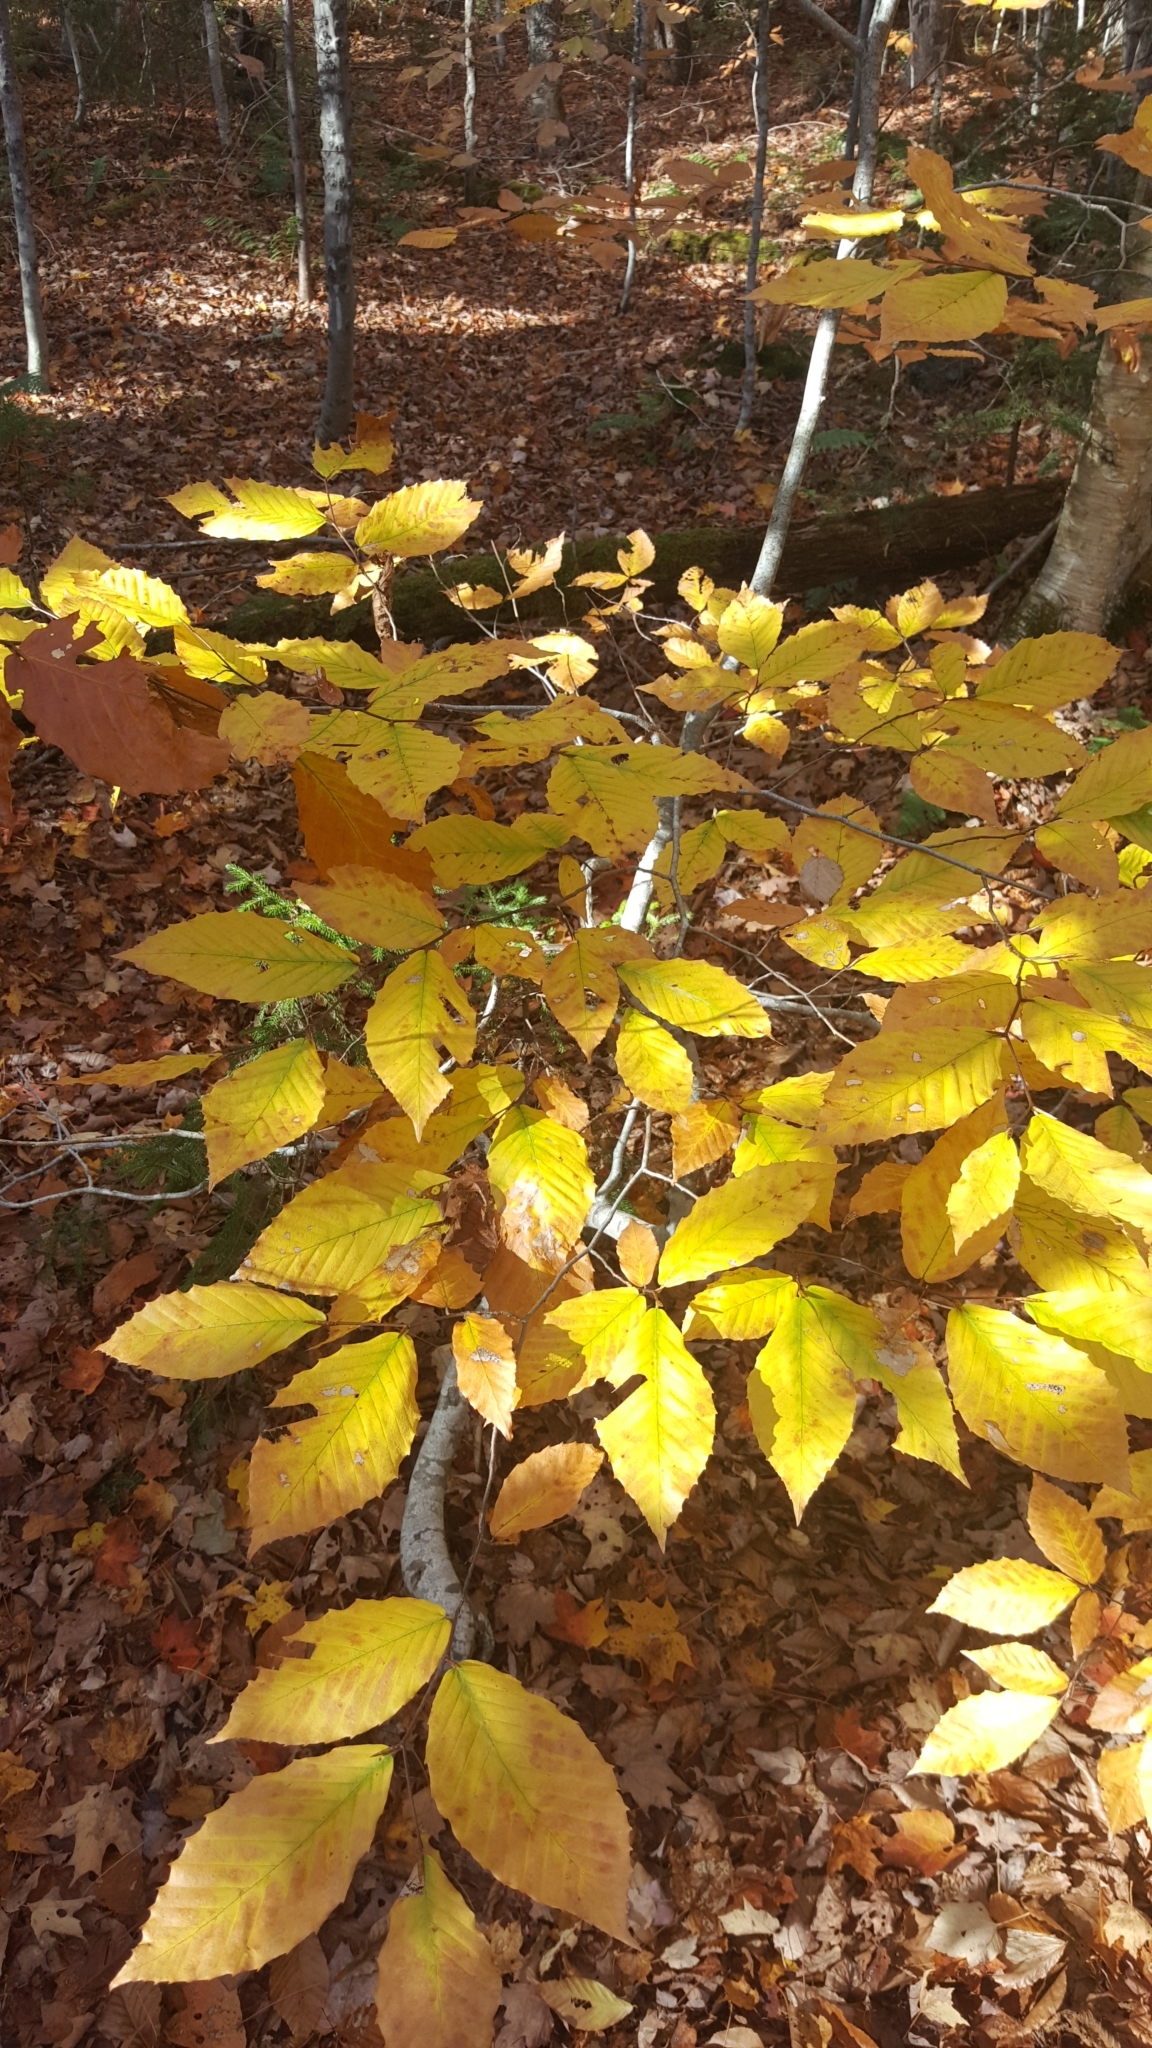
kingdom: Plantae
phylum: Tracheophyta
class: Magnoliopsida
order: Fagales
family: Fagaceae
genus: Fagus
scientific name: Fagus grandifolia
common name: American beech
